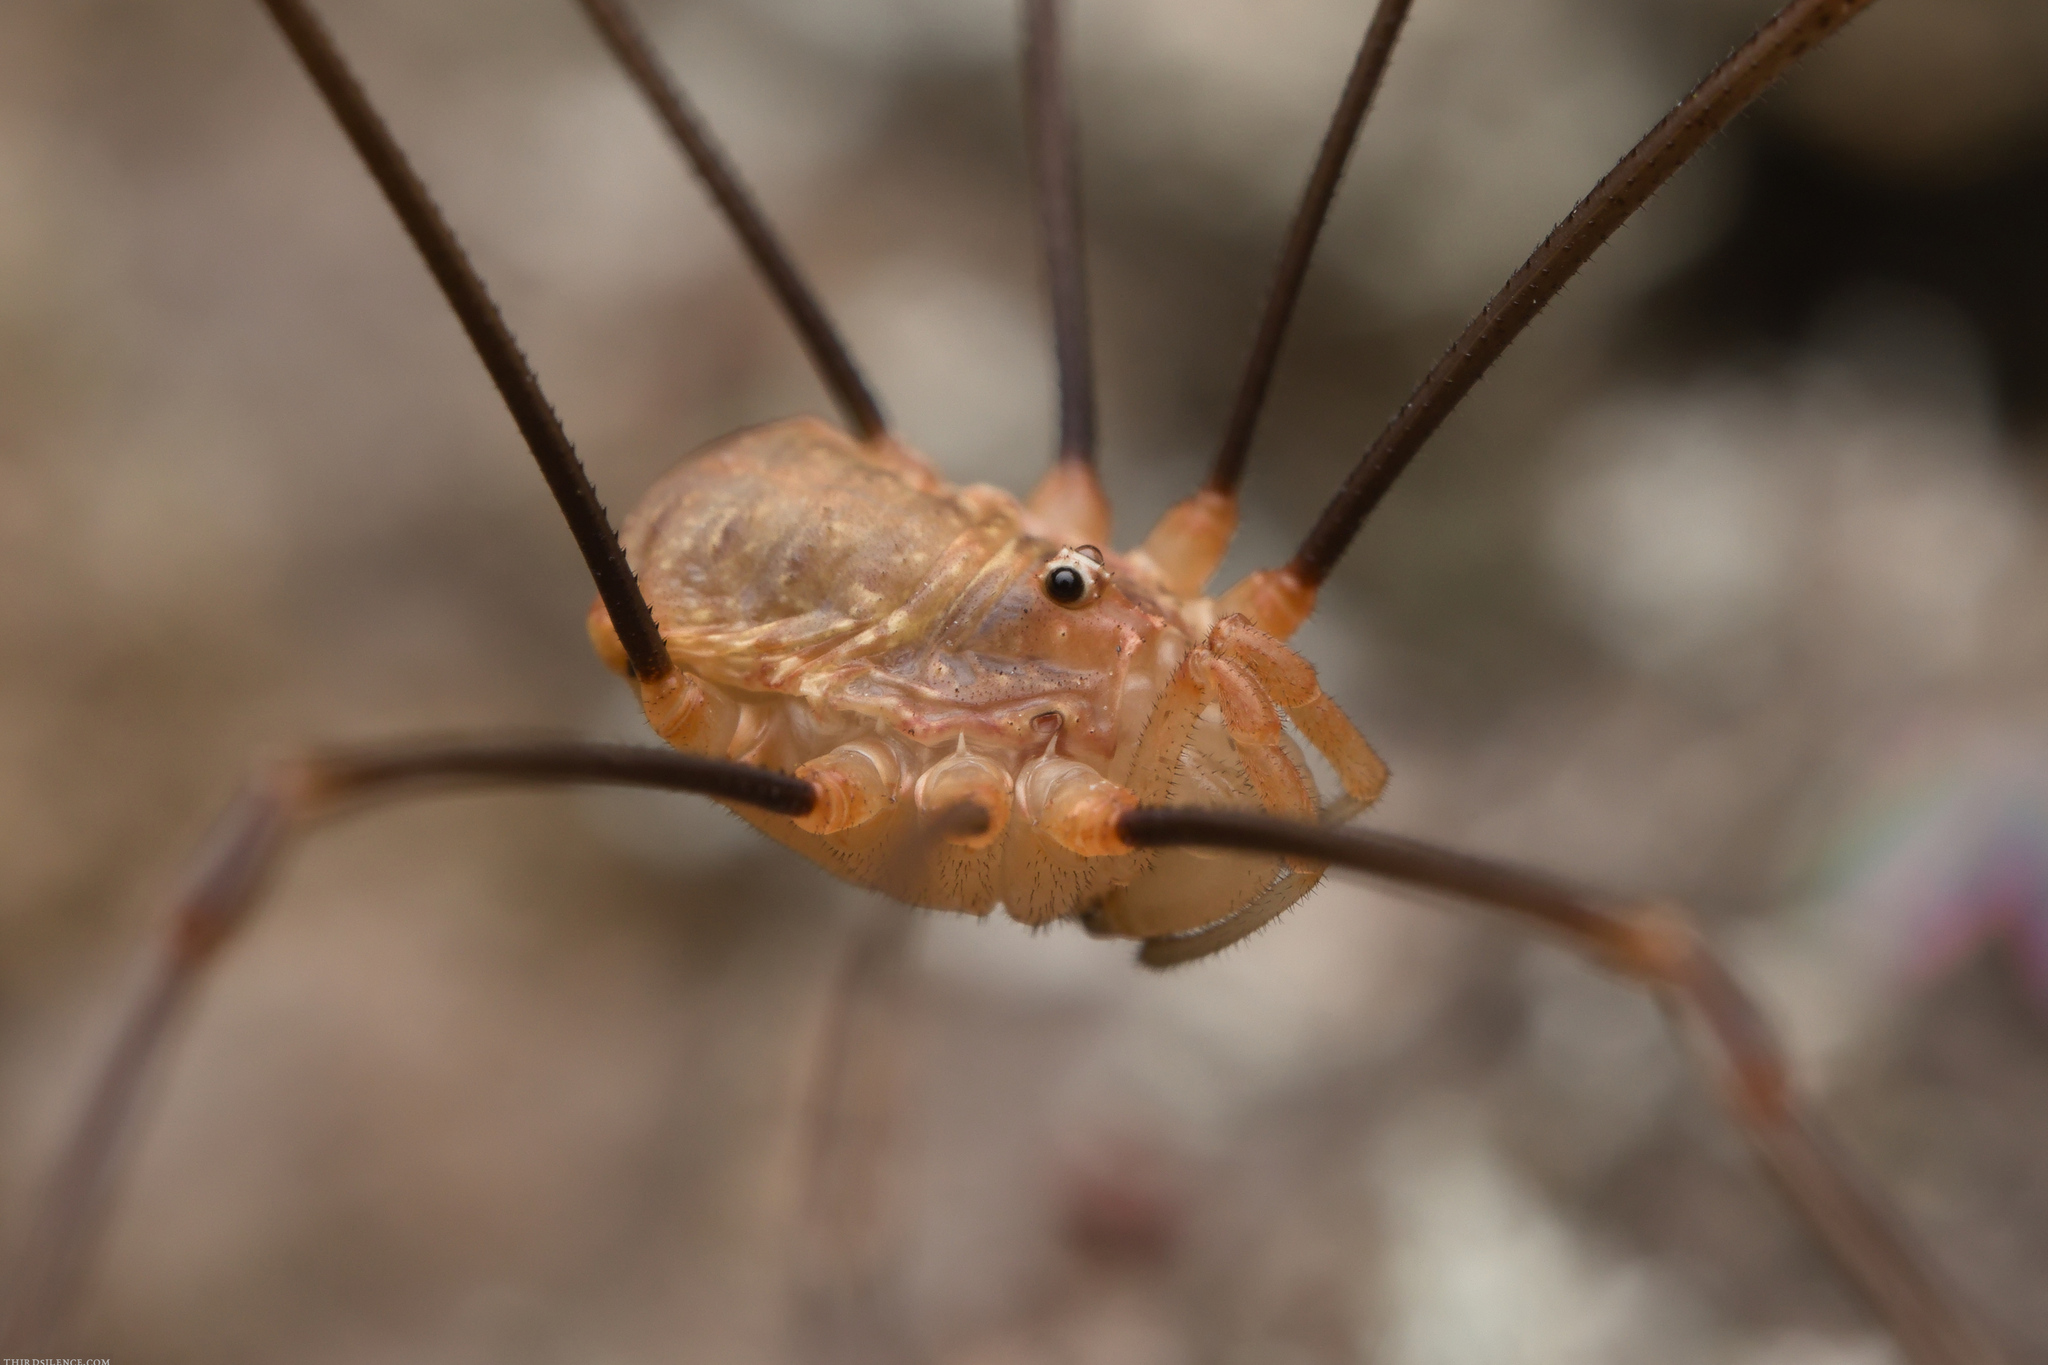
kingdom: Animalia
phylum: Arthropoda
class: Arachnida
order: Opiliones
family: Phalangiidae
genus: Opilio
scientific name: Opilio canestrinii
